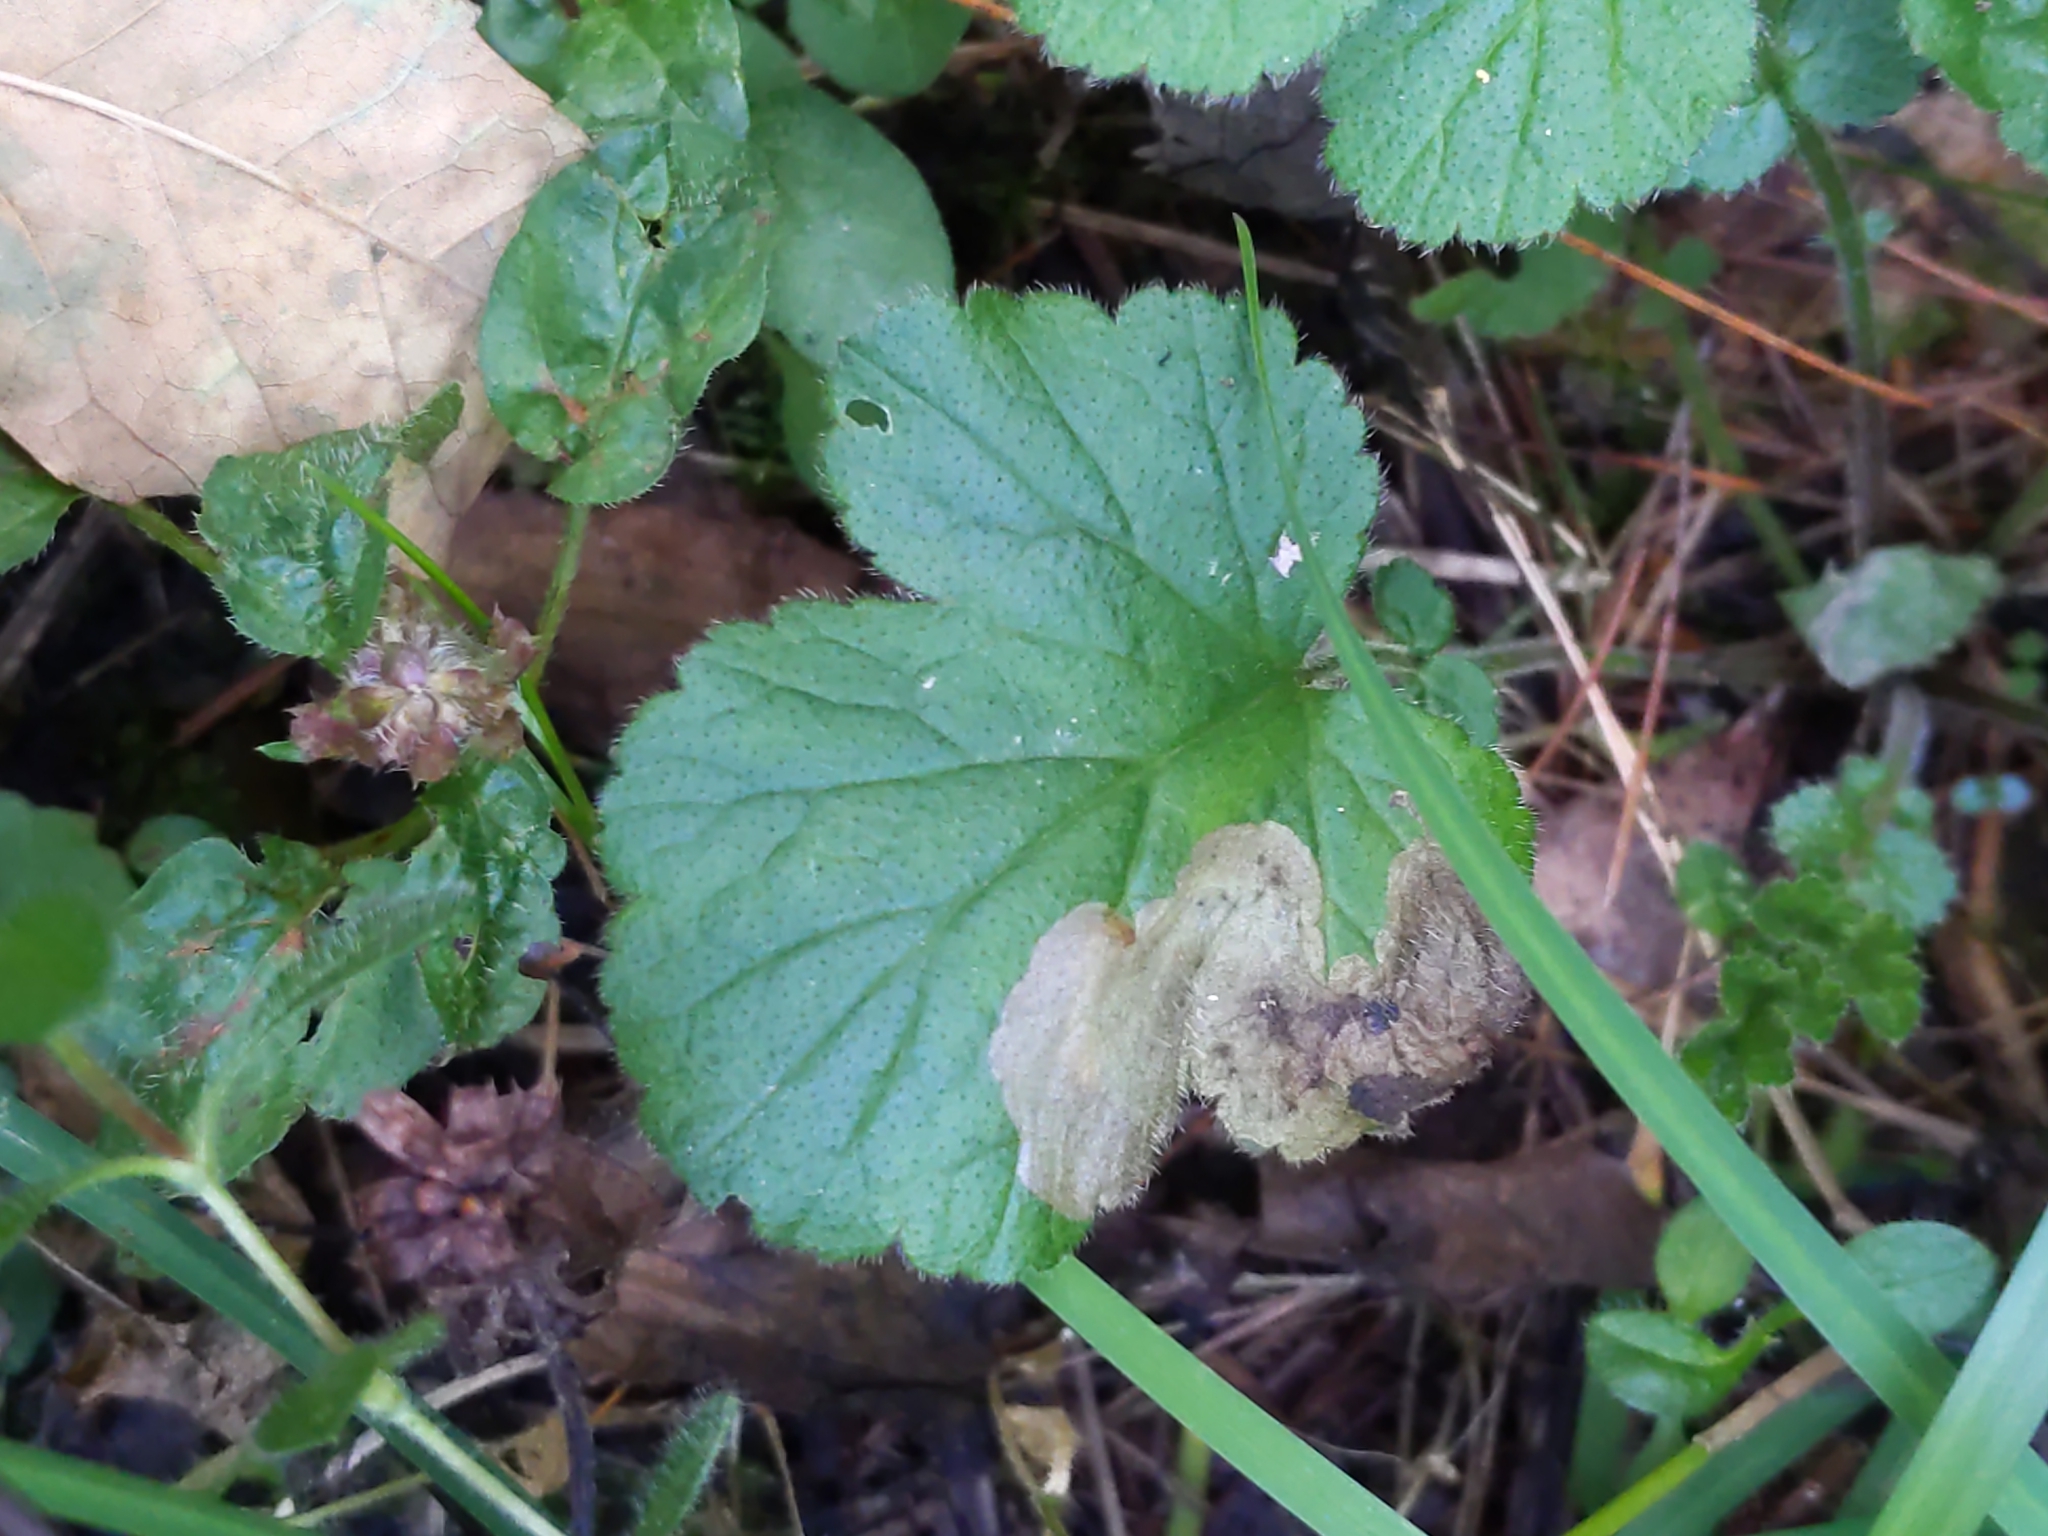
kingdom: Animalia
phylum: Arthropoda
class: Insecta
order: Hymenoptera
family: Tenthredinidae
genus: Metallus
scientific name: Metallus lanceolatus
